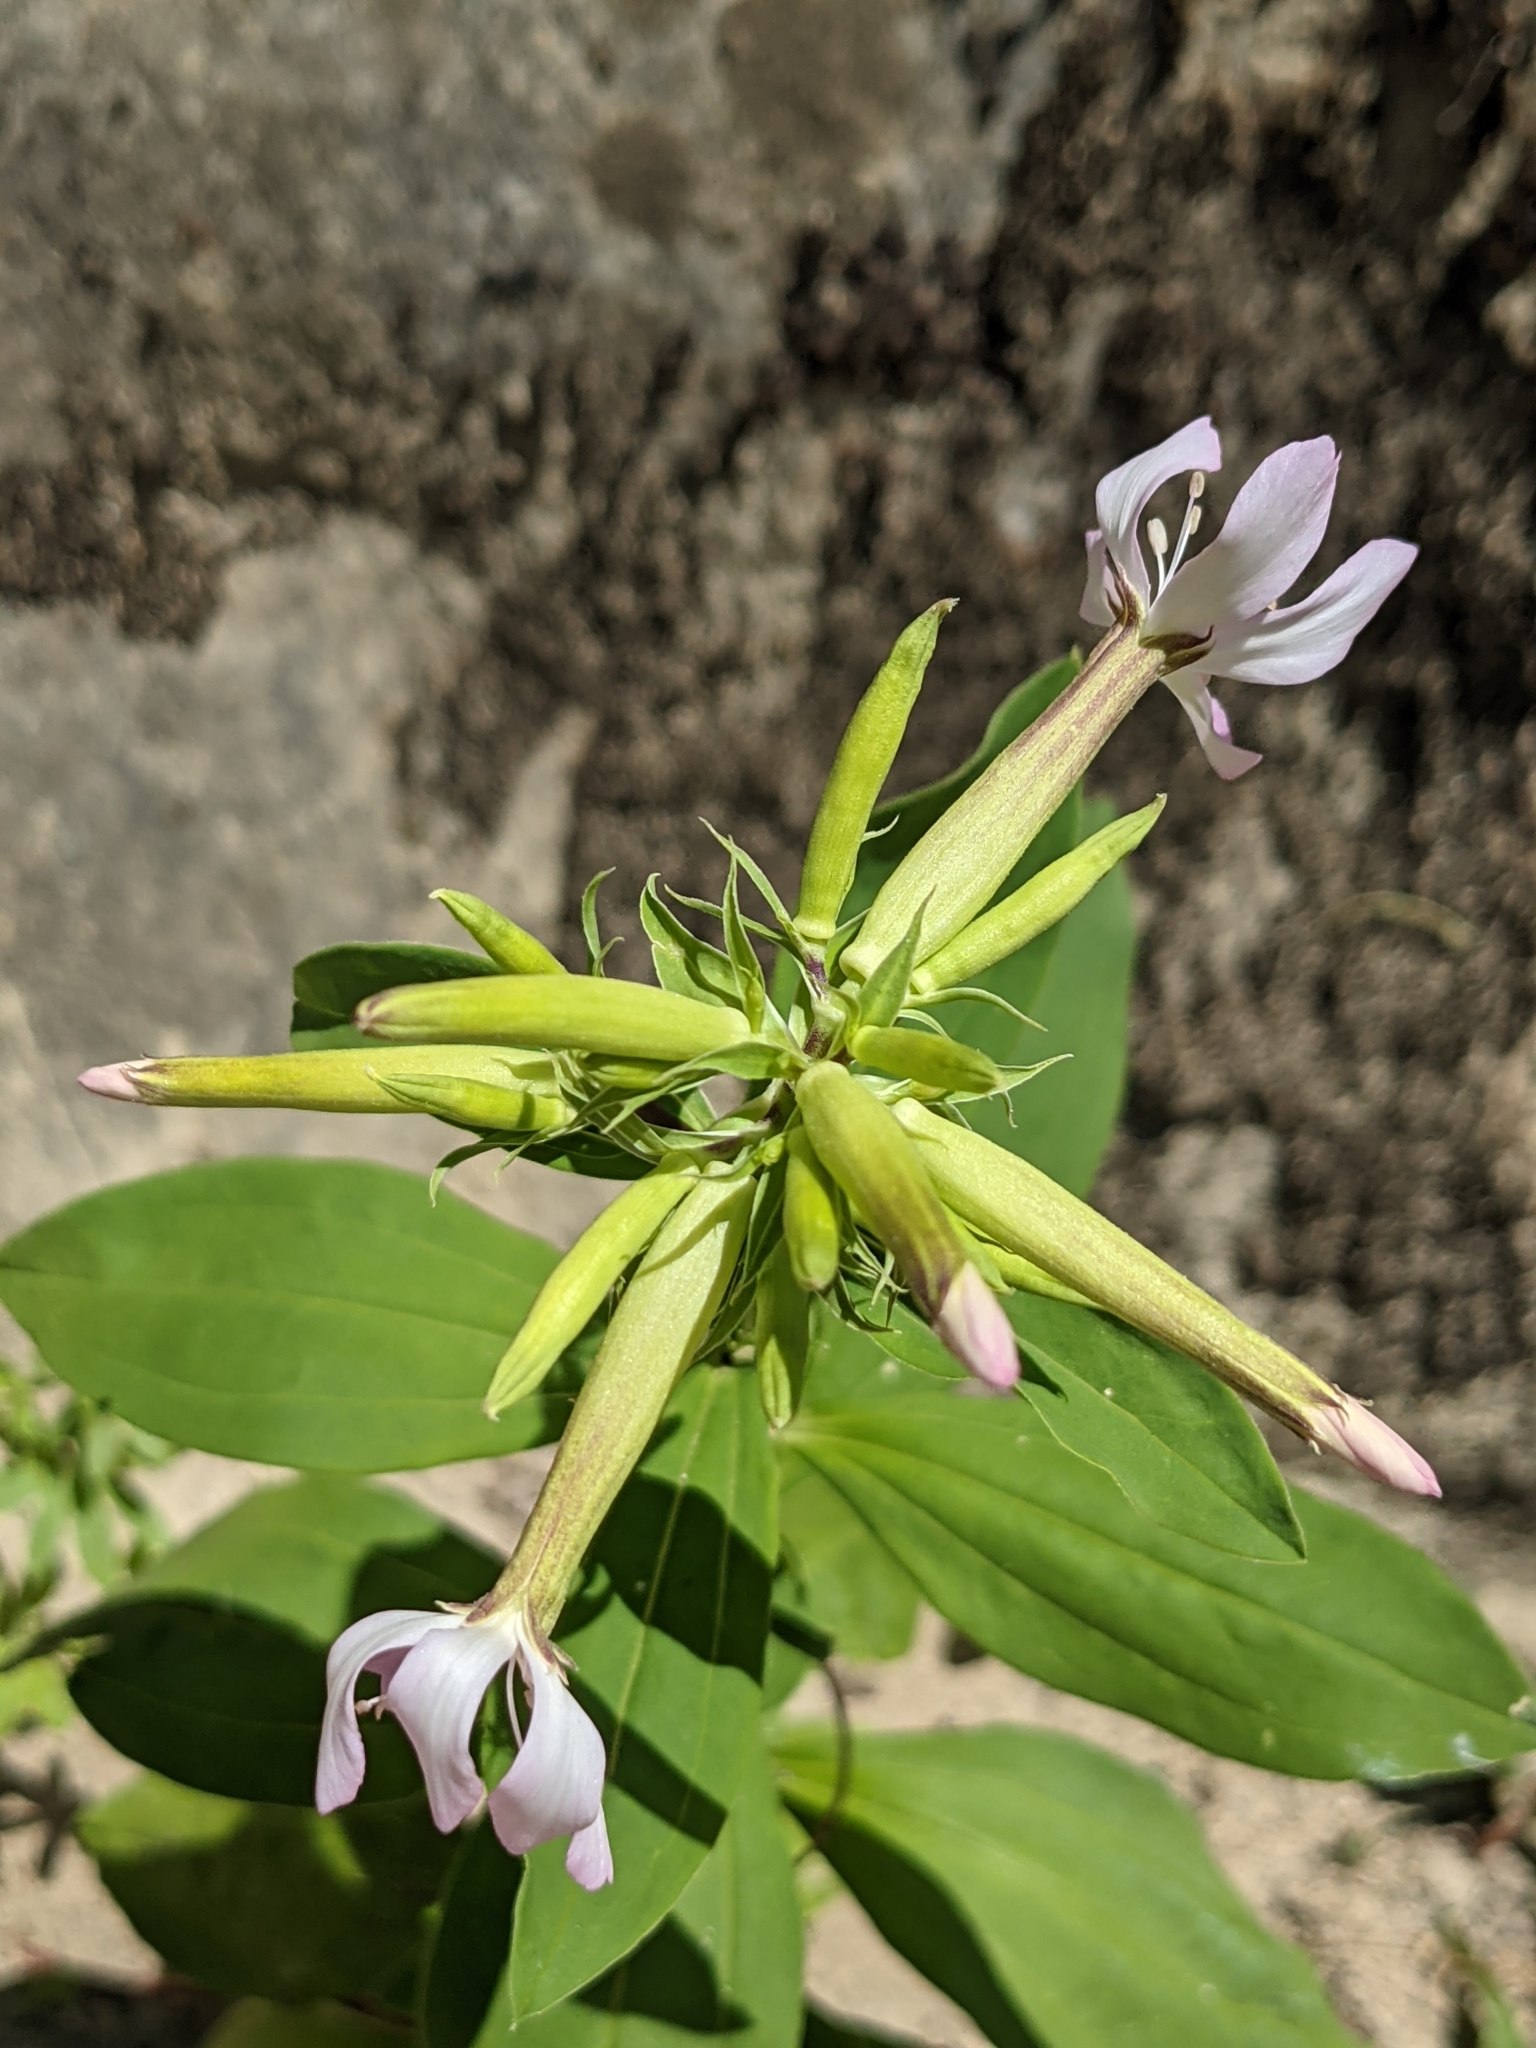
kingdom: Plantae
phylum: Tracheophyta
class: Magnoliopsida
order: Caryophyllales
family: Caryophyllaceae
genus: Saponaria
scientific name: Saponaria officinalis
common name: Soapwort
